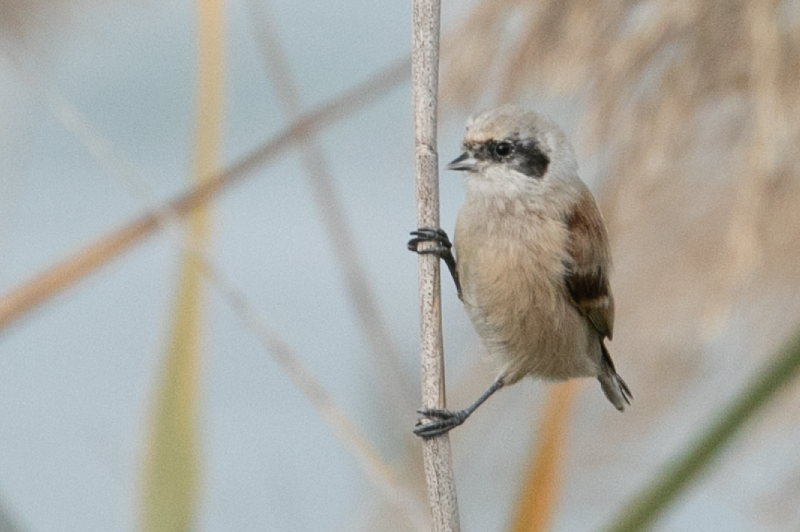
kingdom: Animalia
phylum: Chordata
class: Aves
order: Passeriformes
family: Remizidae
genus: Remiz
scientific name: Remiz pendulinus
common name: Eurasian penduline tit
